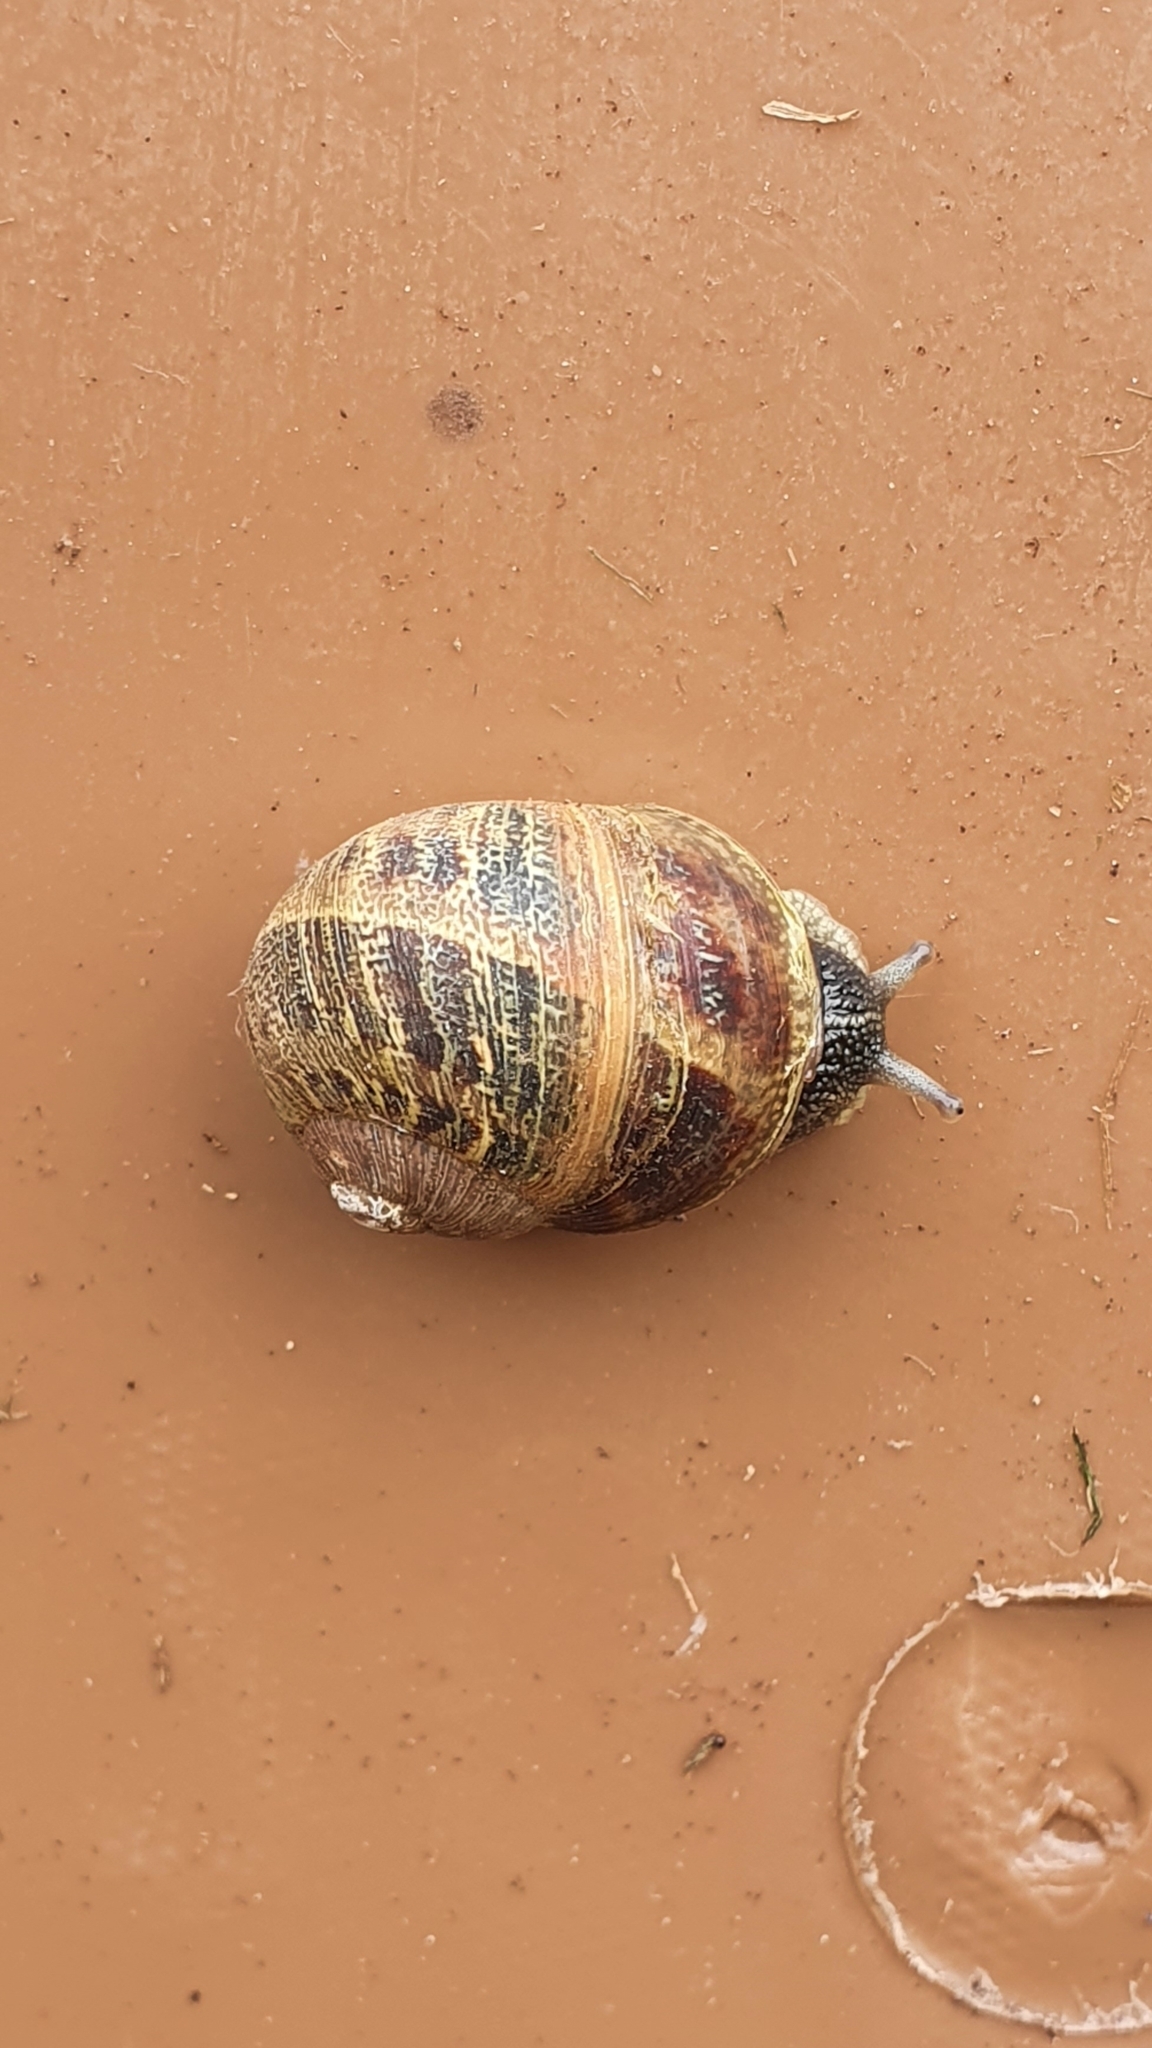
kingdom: Animalia
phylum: Mollusca
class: Gastropoda
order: Stylommatophora
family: Helicidae
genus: Cornu
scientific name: Cornu aspersum
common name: Brown garden snail
